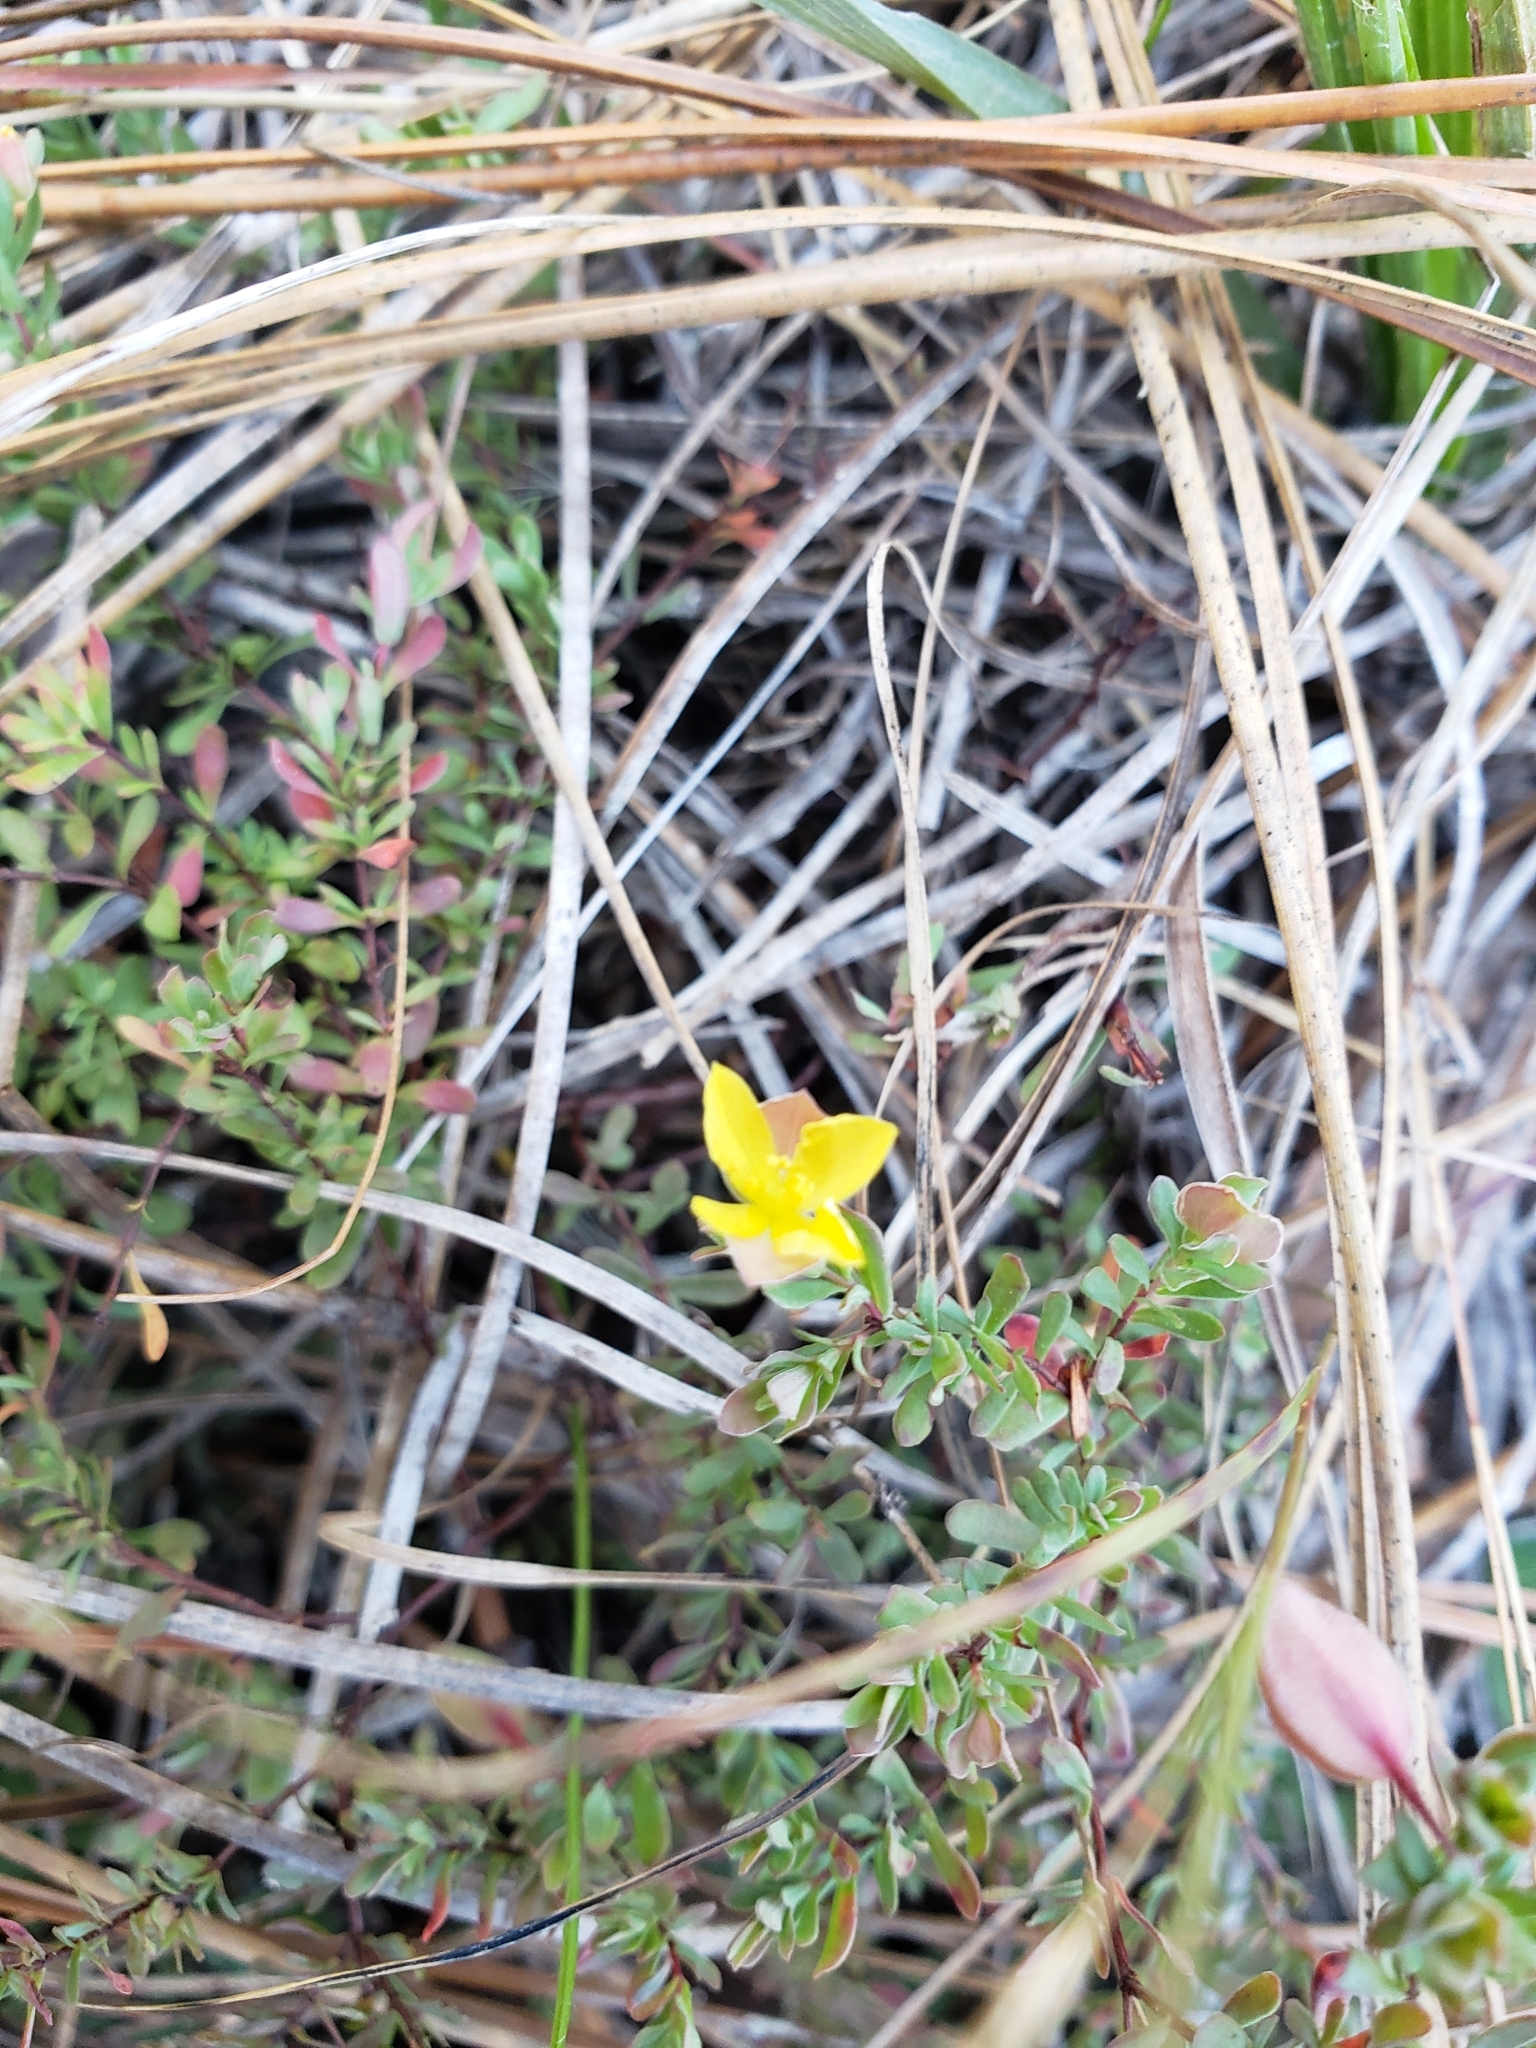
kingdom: Plantae
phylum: Tracheophyta
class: Magnoliopsida
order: Malpighiales
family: Hypericaceae
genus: Hypericum
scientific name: Hypericum suffruticosum
